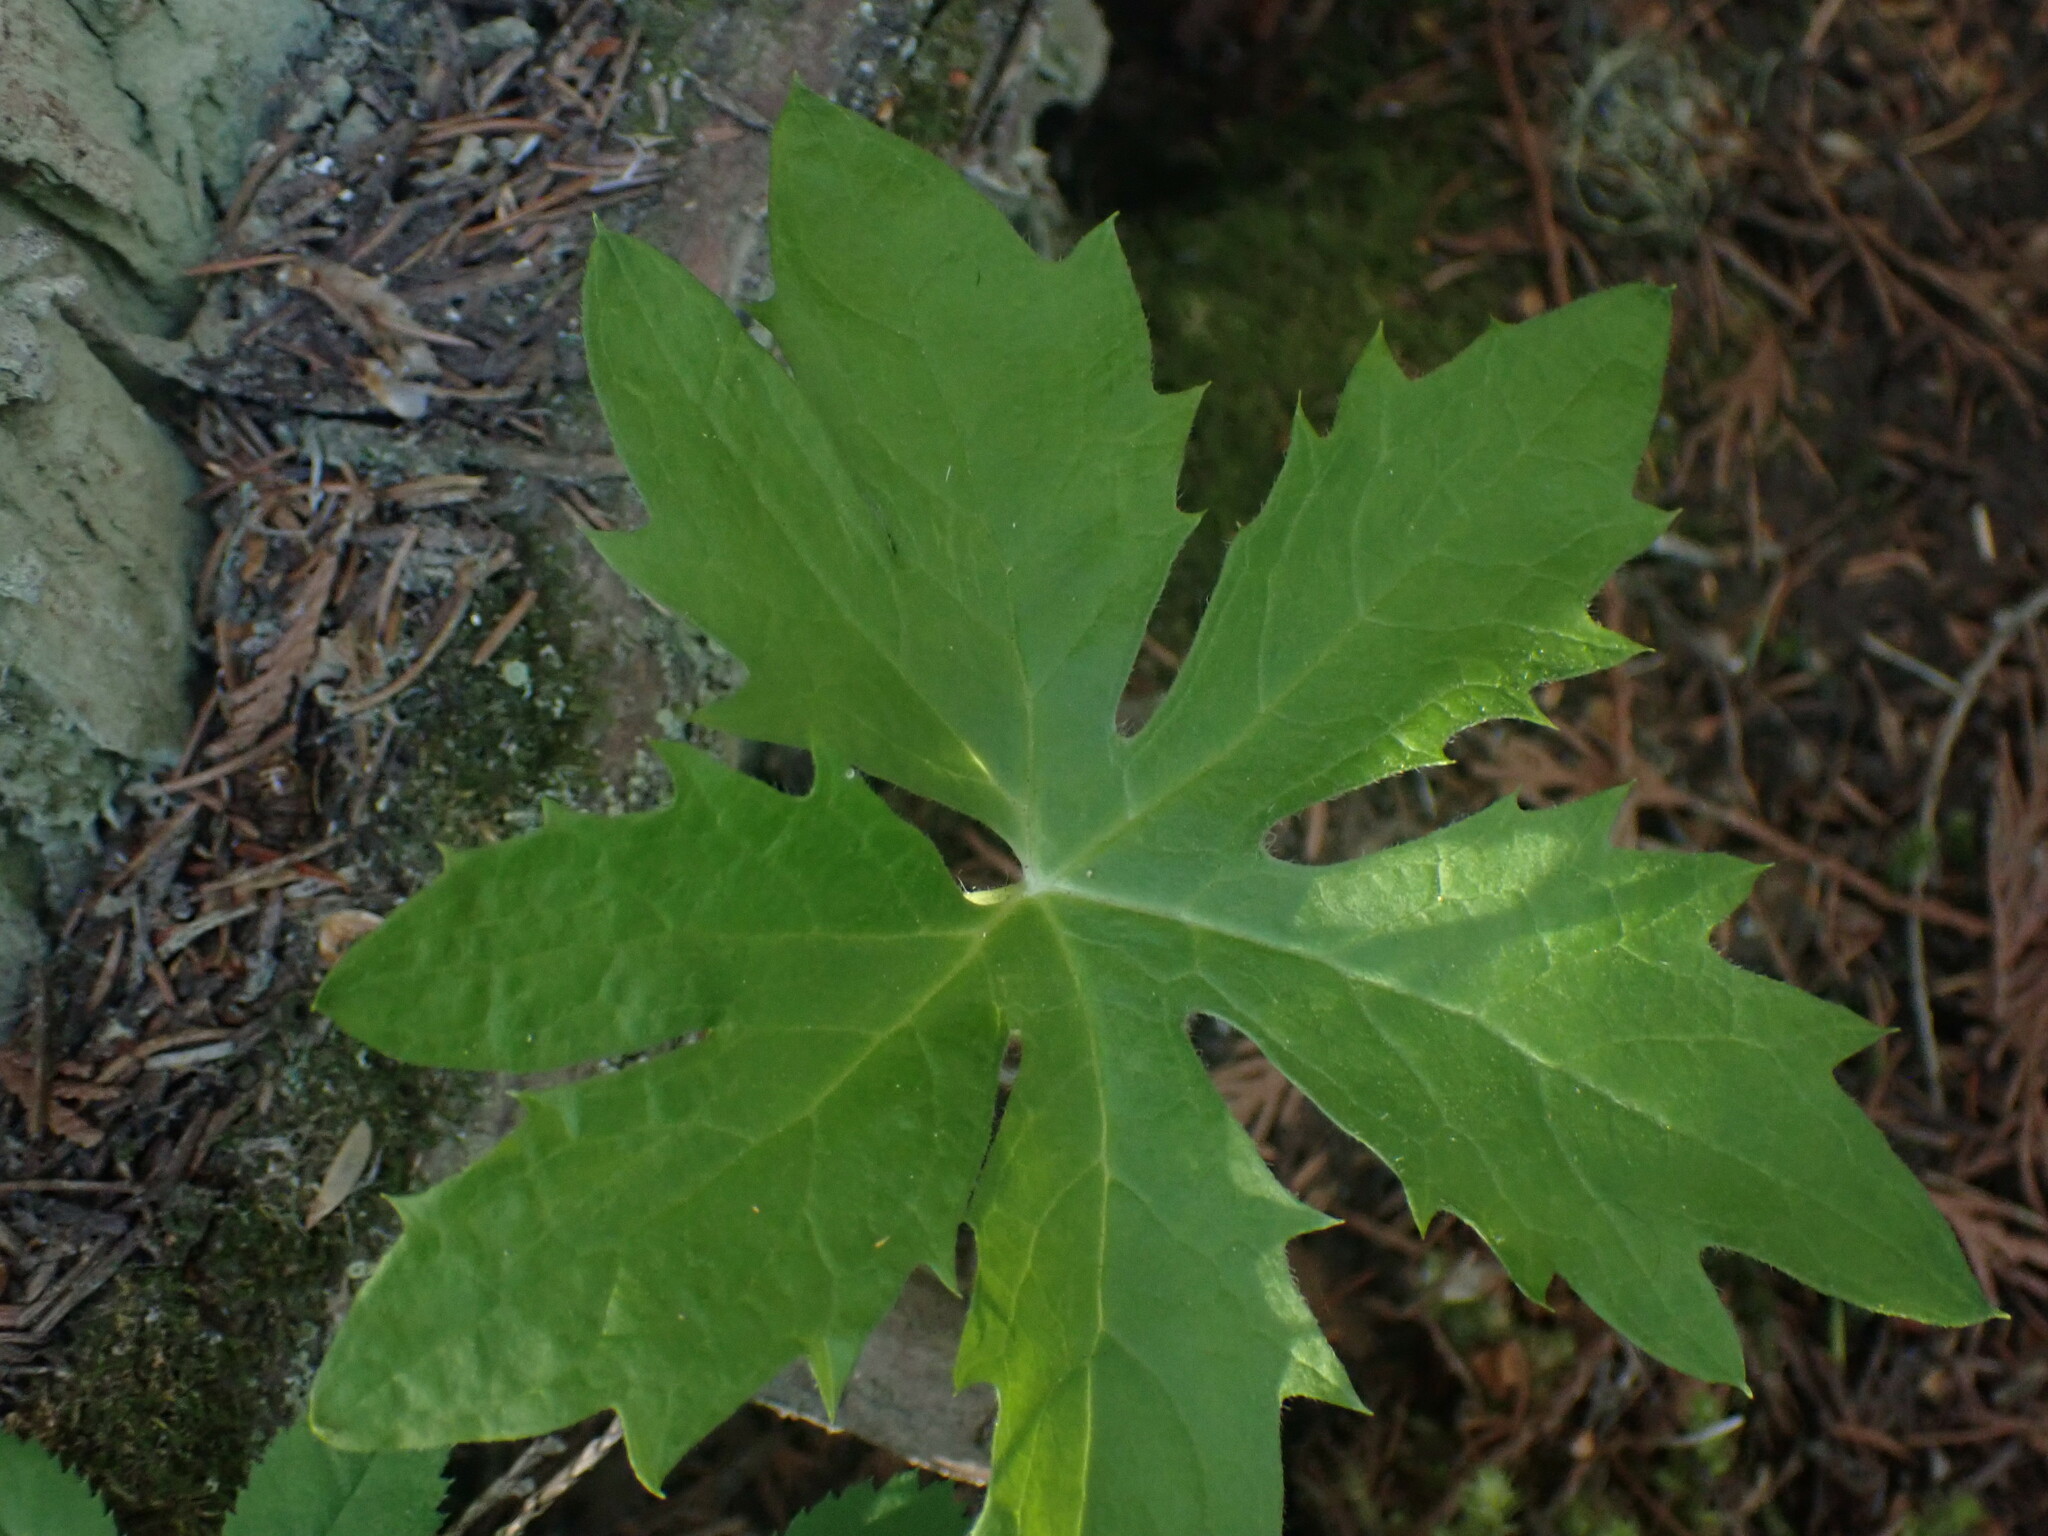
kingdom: Plantae
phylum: Tracheophyta
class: Magnoliopsida
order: Asterales
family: Asteraceae
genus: Petasites
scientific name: Petasites frigidus
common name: Arctic butterbur
